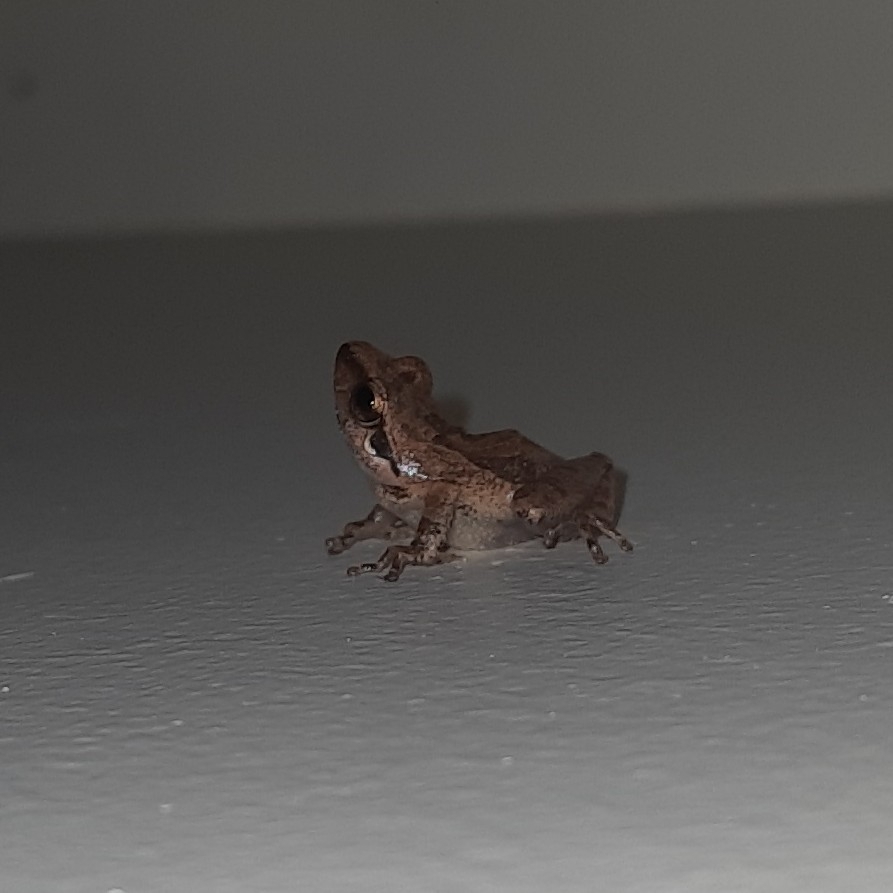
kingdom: Animalia
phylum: Chordata
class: Amphibia
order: Anura
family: Rhacophoridae
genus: Pseudophilautus
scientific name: Pseudophilautus wynaadensis
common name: Dark-eared bush frog
